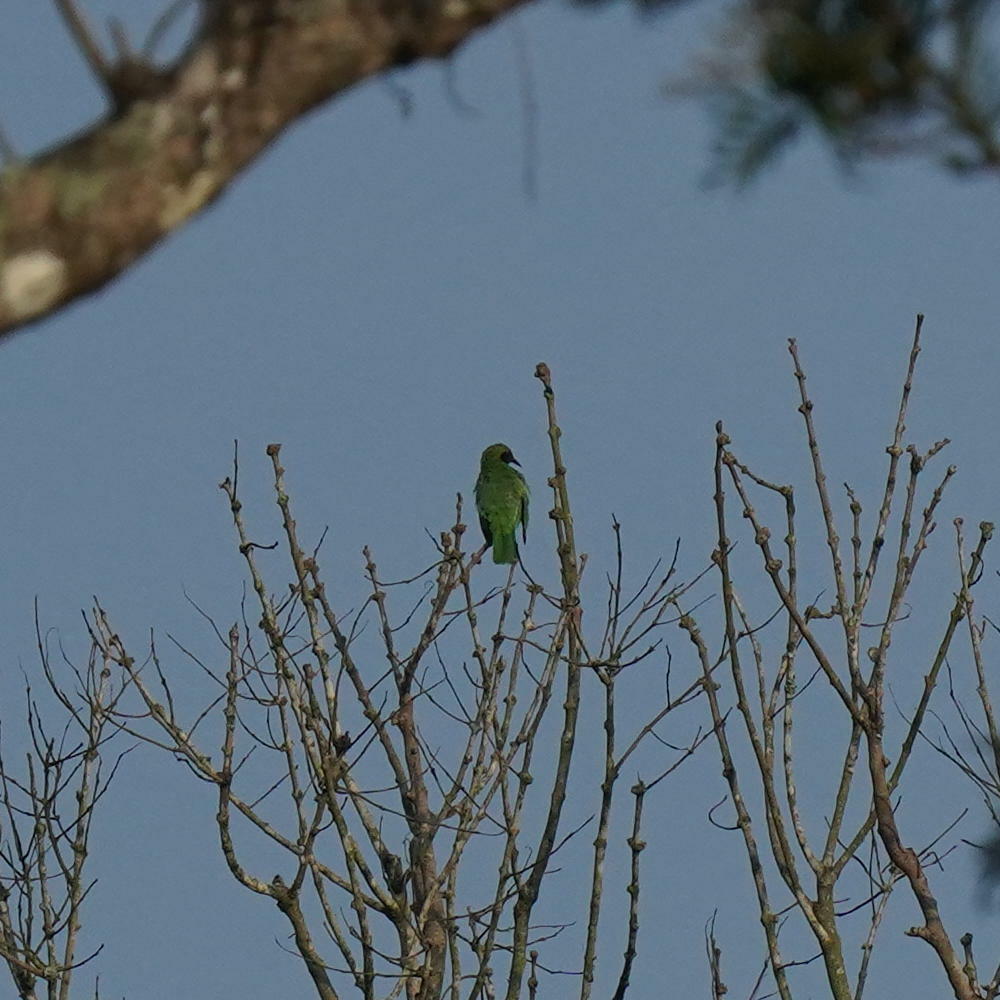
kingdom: Animalia
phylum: Chordata
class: Aves
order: Passeriformes
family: Chloropseidae
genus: Chloropsis
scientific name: Chloropsis aurifrons
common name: Golden-fronted leafbird
